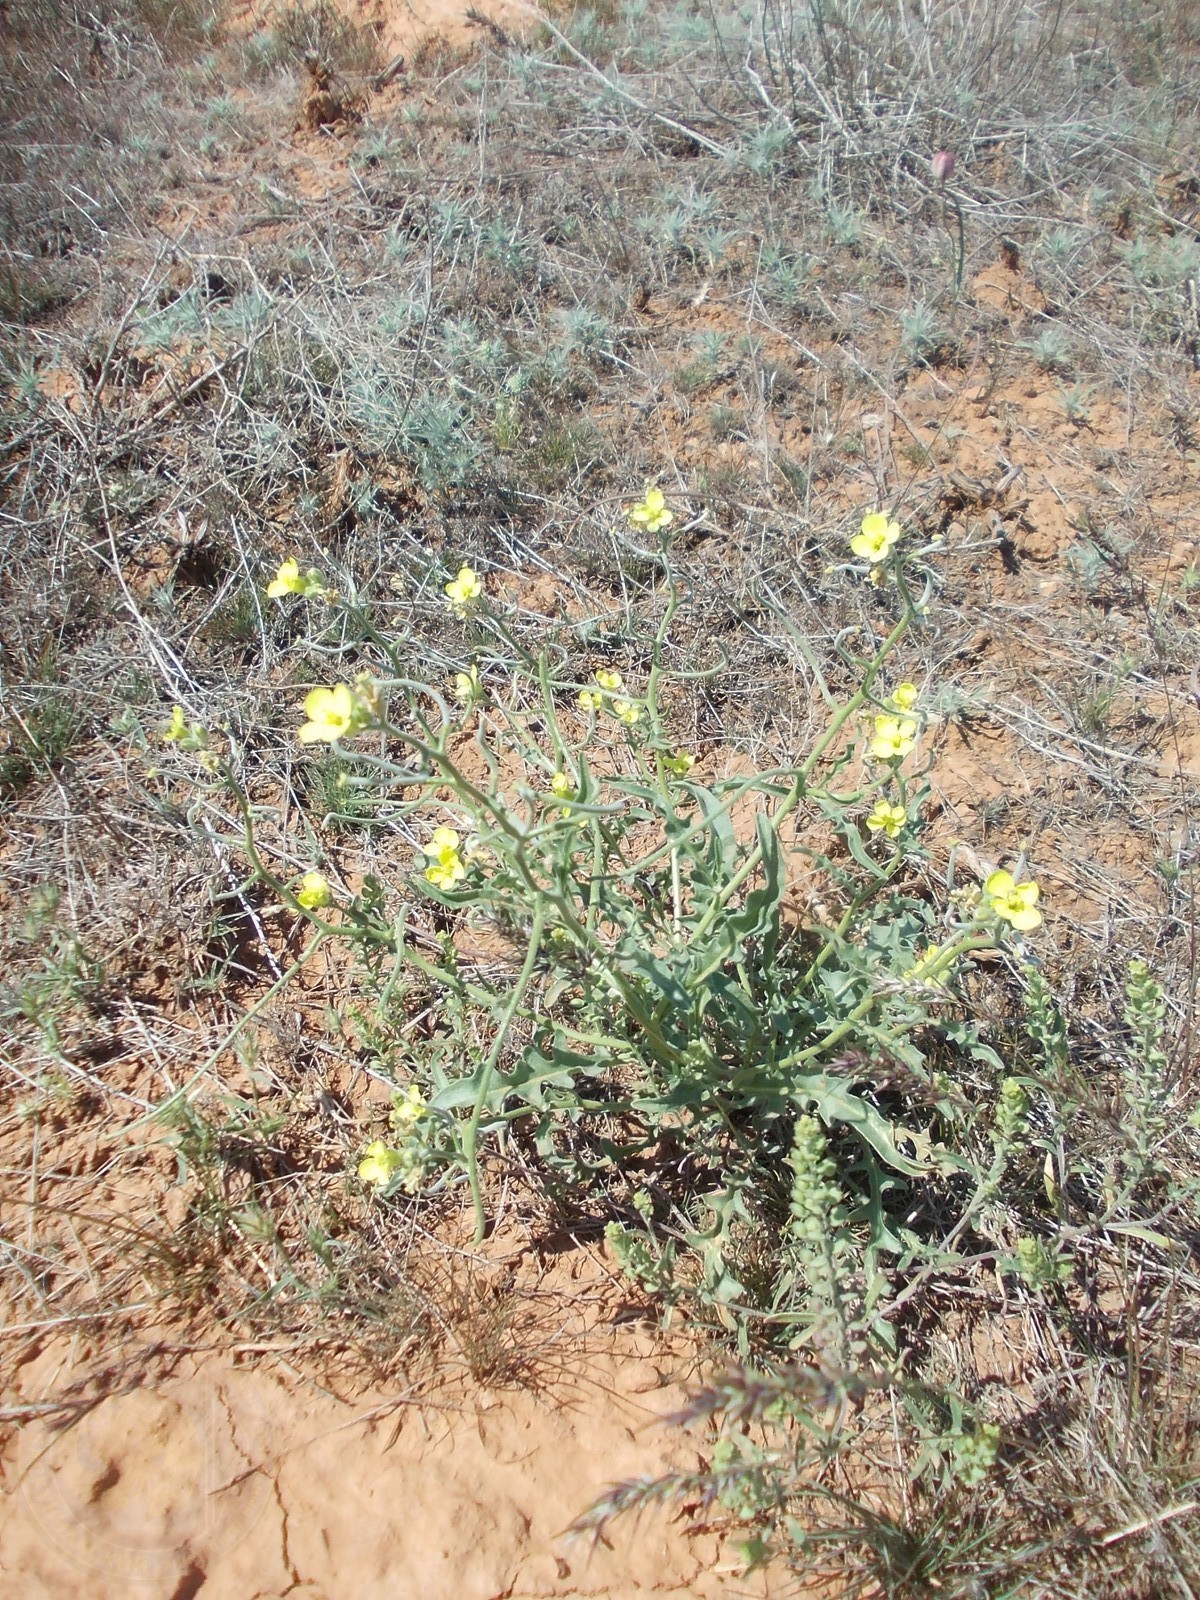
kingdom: Plantae
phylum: Tracheophyta
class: Magnoliopsida
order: Brassicales
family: Brassicaceae
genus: Sterigmostemum
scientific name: Sterigmostemum caspicum
